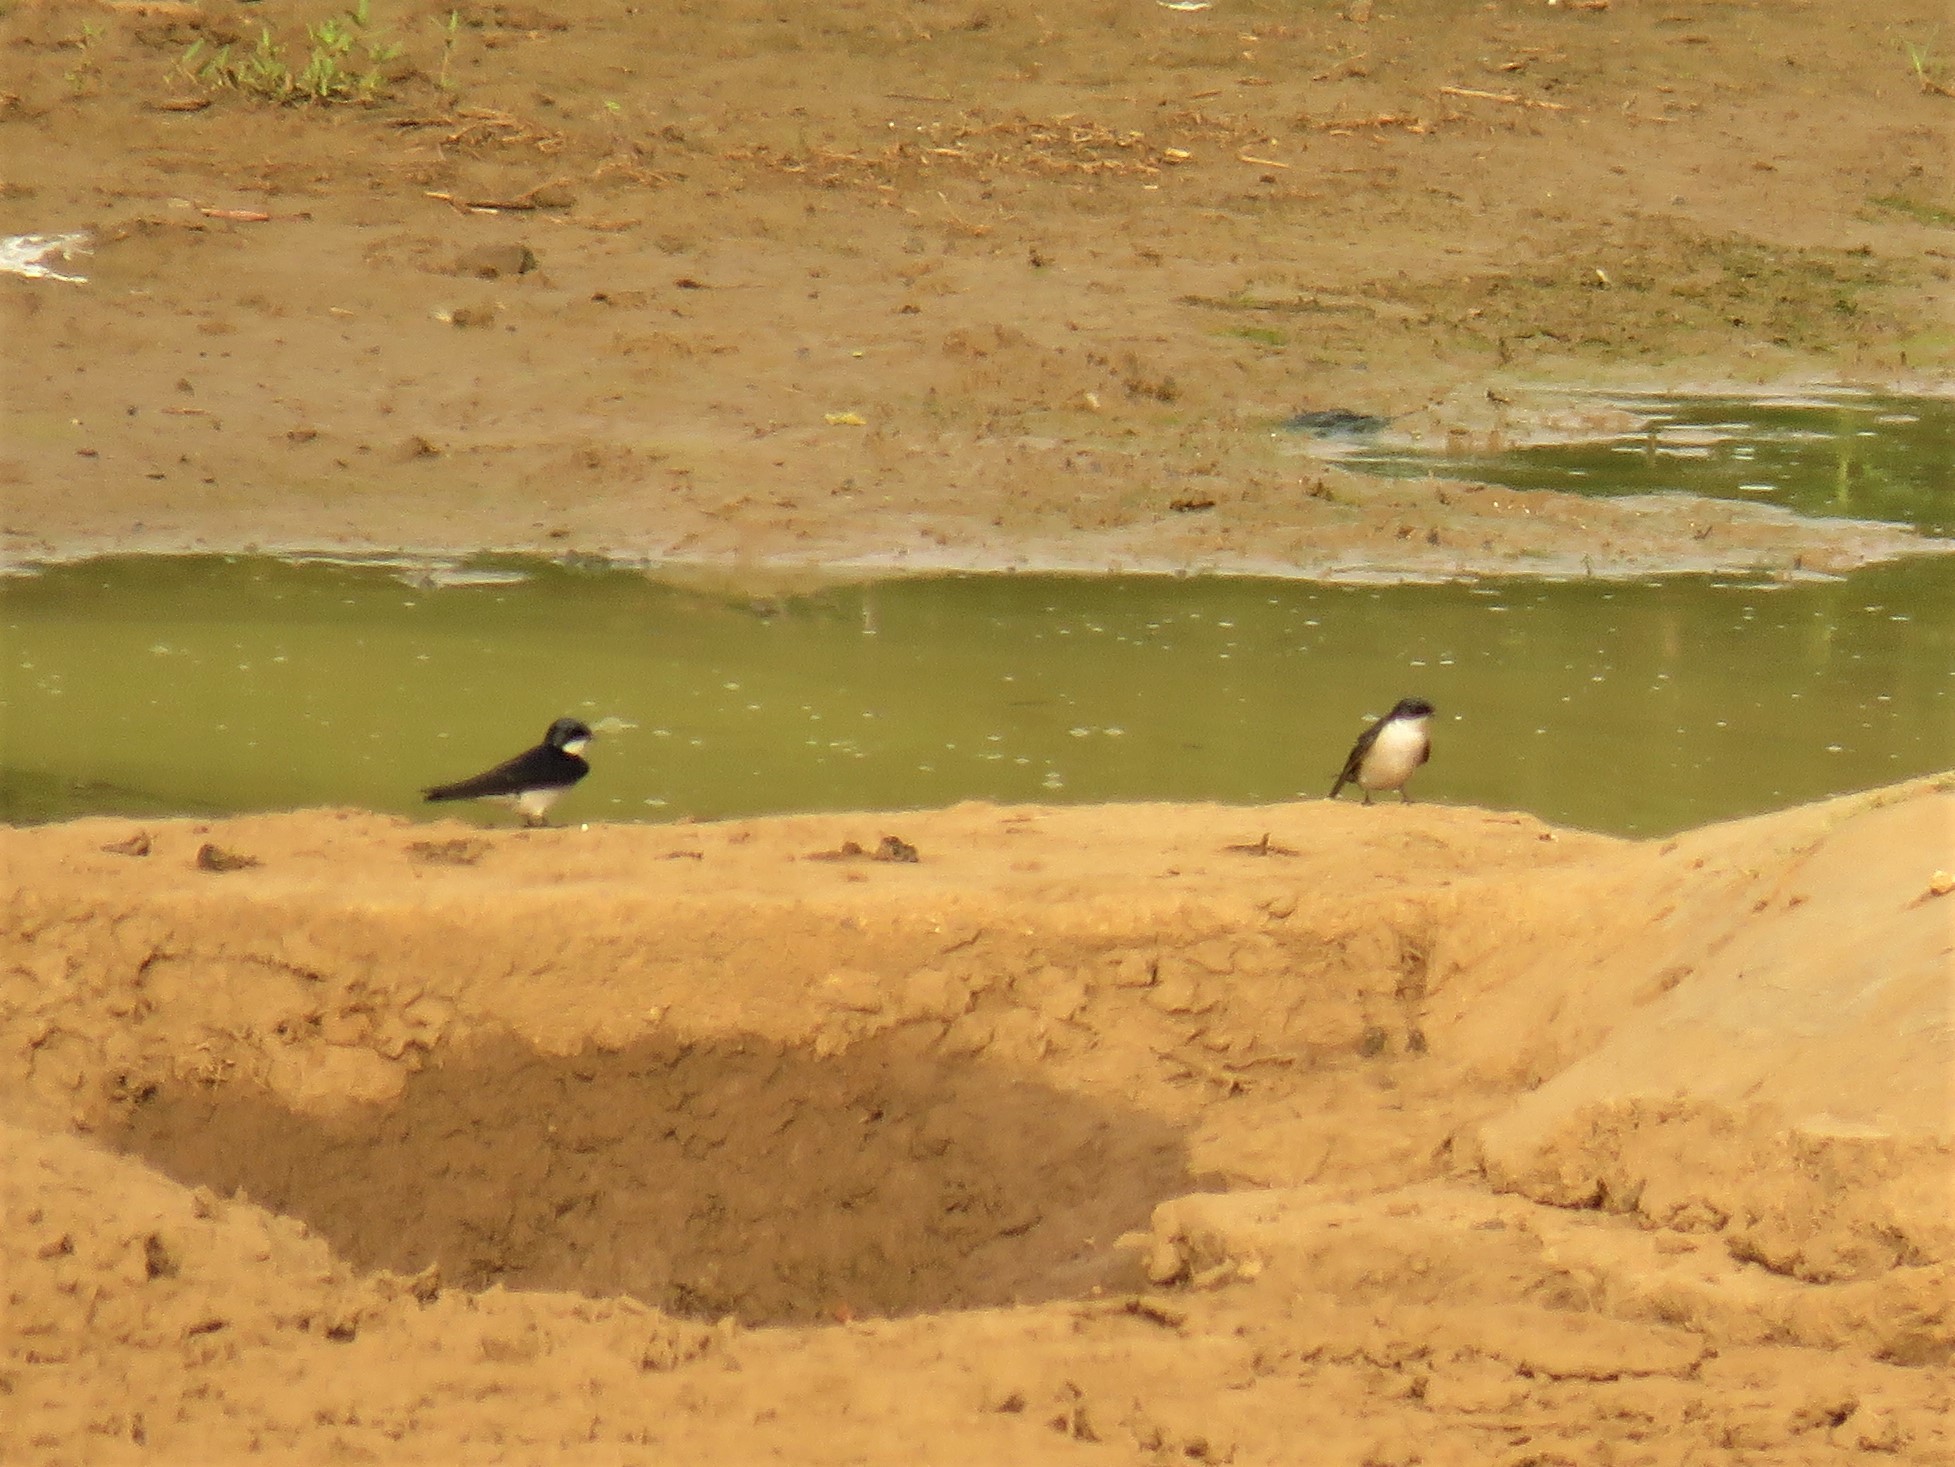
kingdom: Animalia
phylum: Chordata
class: Aves
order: Passeriformes
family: Hirundinidae
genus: Hirundo
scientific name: Hirundo dimidiata
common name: Pearl-breasted swallow
